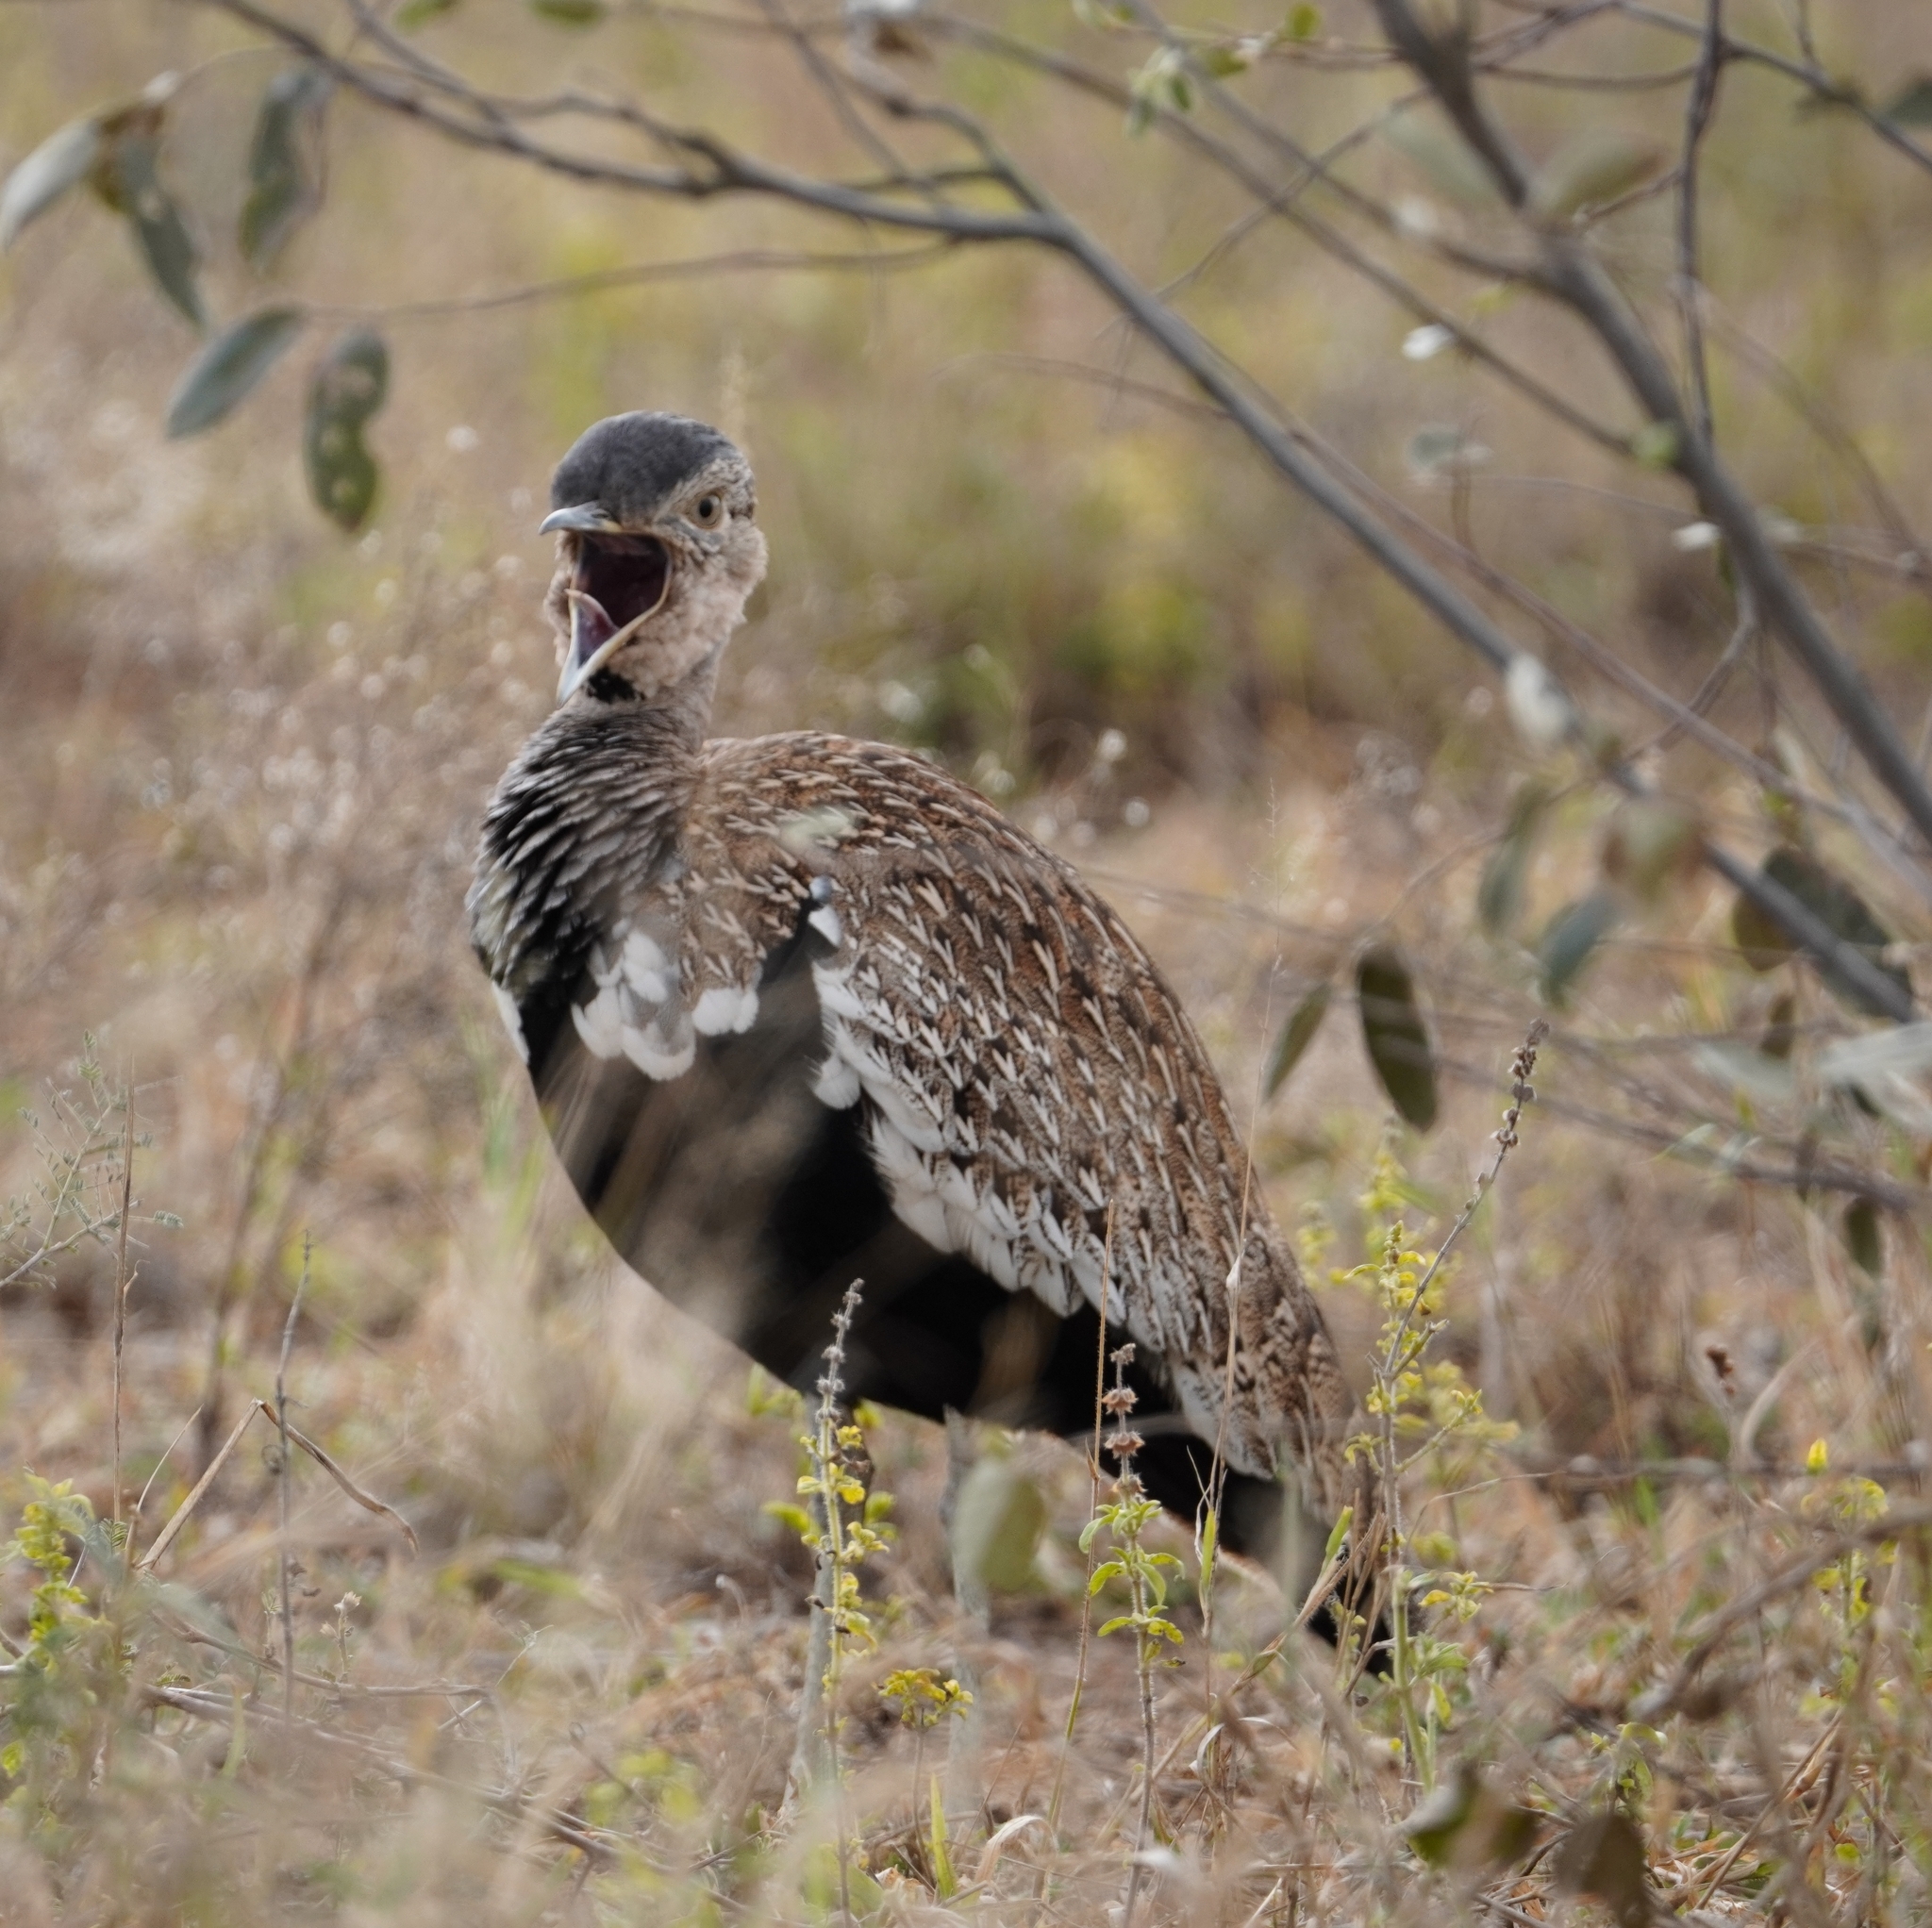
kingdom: Animalia
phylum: Chordata
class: Aves
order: Otidiformes
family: Otididae
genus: Lophotis
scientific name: Lophotis ruficrista
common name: Red-crested korhaan
